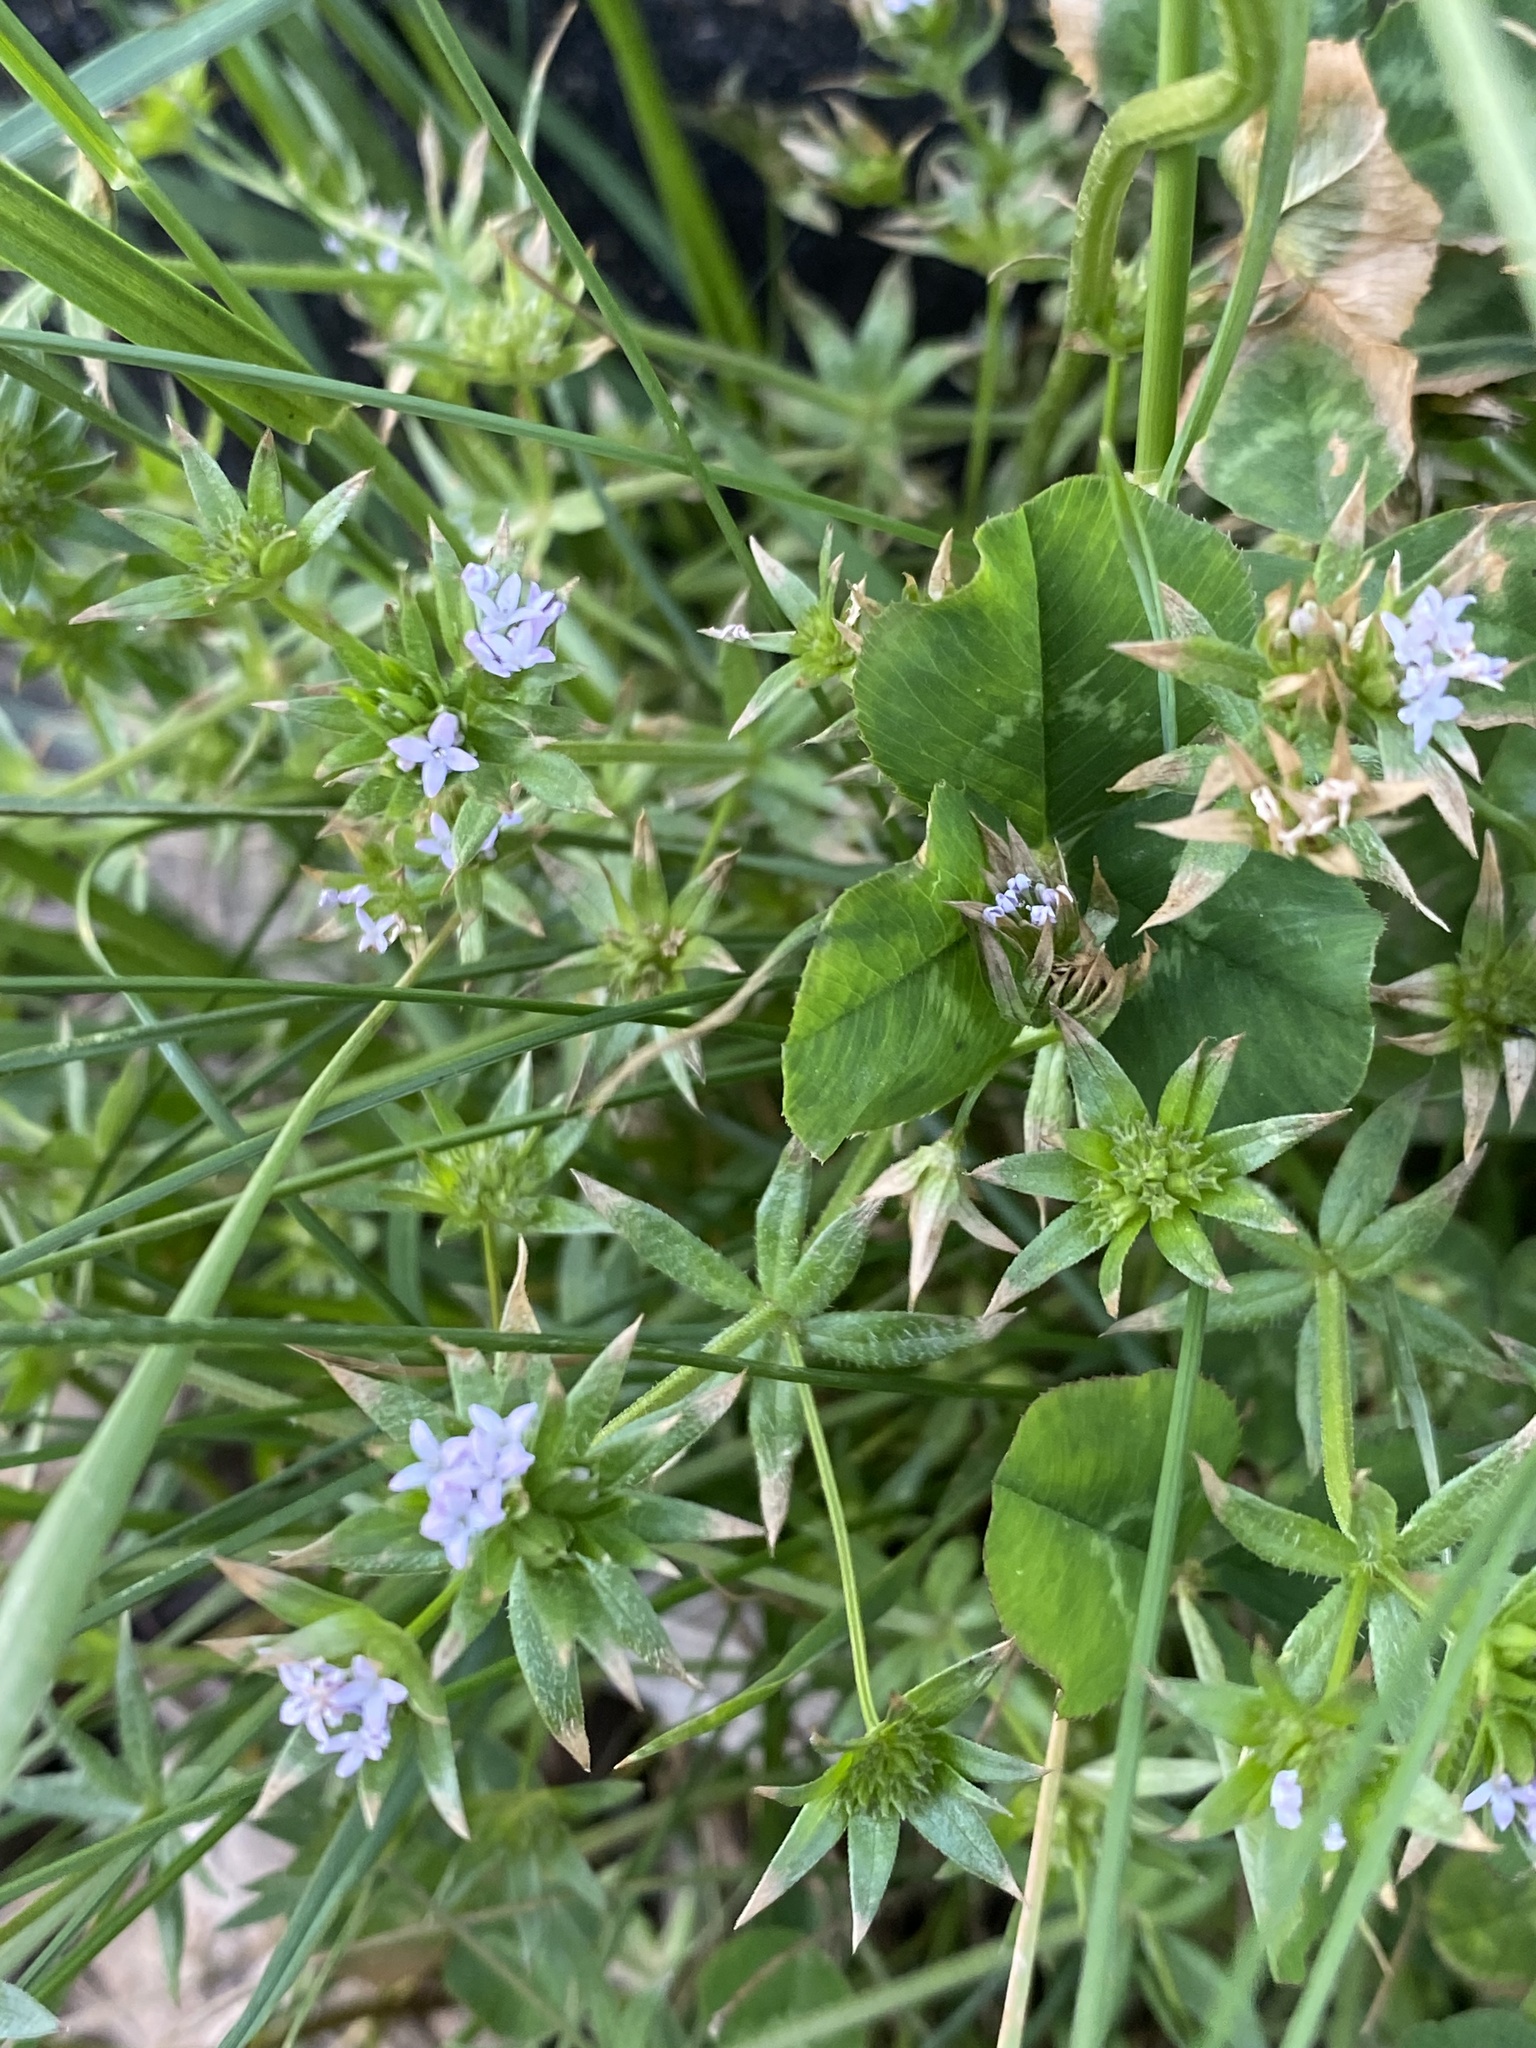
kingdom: Plantae
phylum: Tracheophyta
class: Magnoliopsida
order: Gentianales
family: Rubiaceae
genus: Sherardia
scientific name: Sherardia arvensis
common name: Field madder
